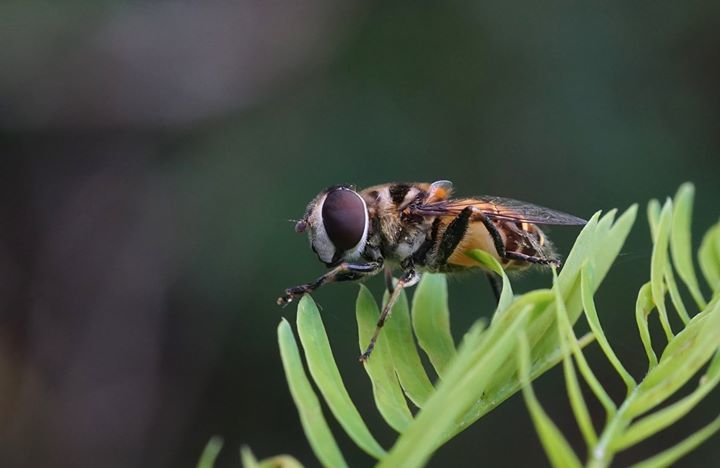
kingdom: Animalia
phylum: Arthropoda
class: Insecta
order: Diptera
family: Syrphidae
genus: Palpada
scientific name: Palpada agrorum
